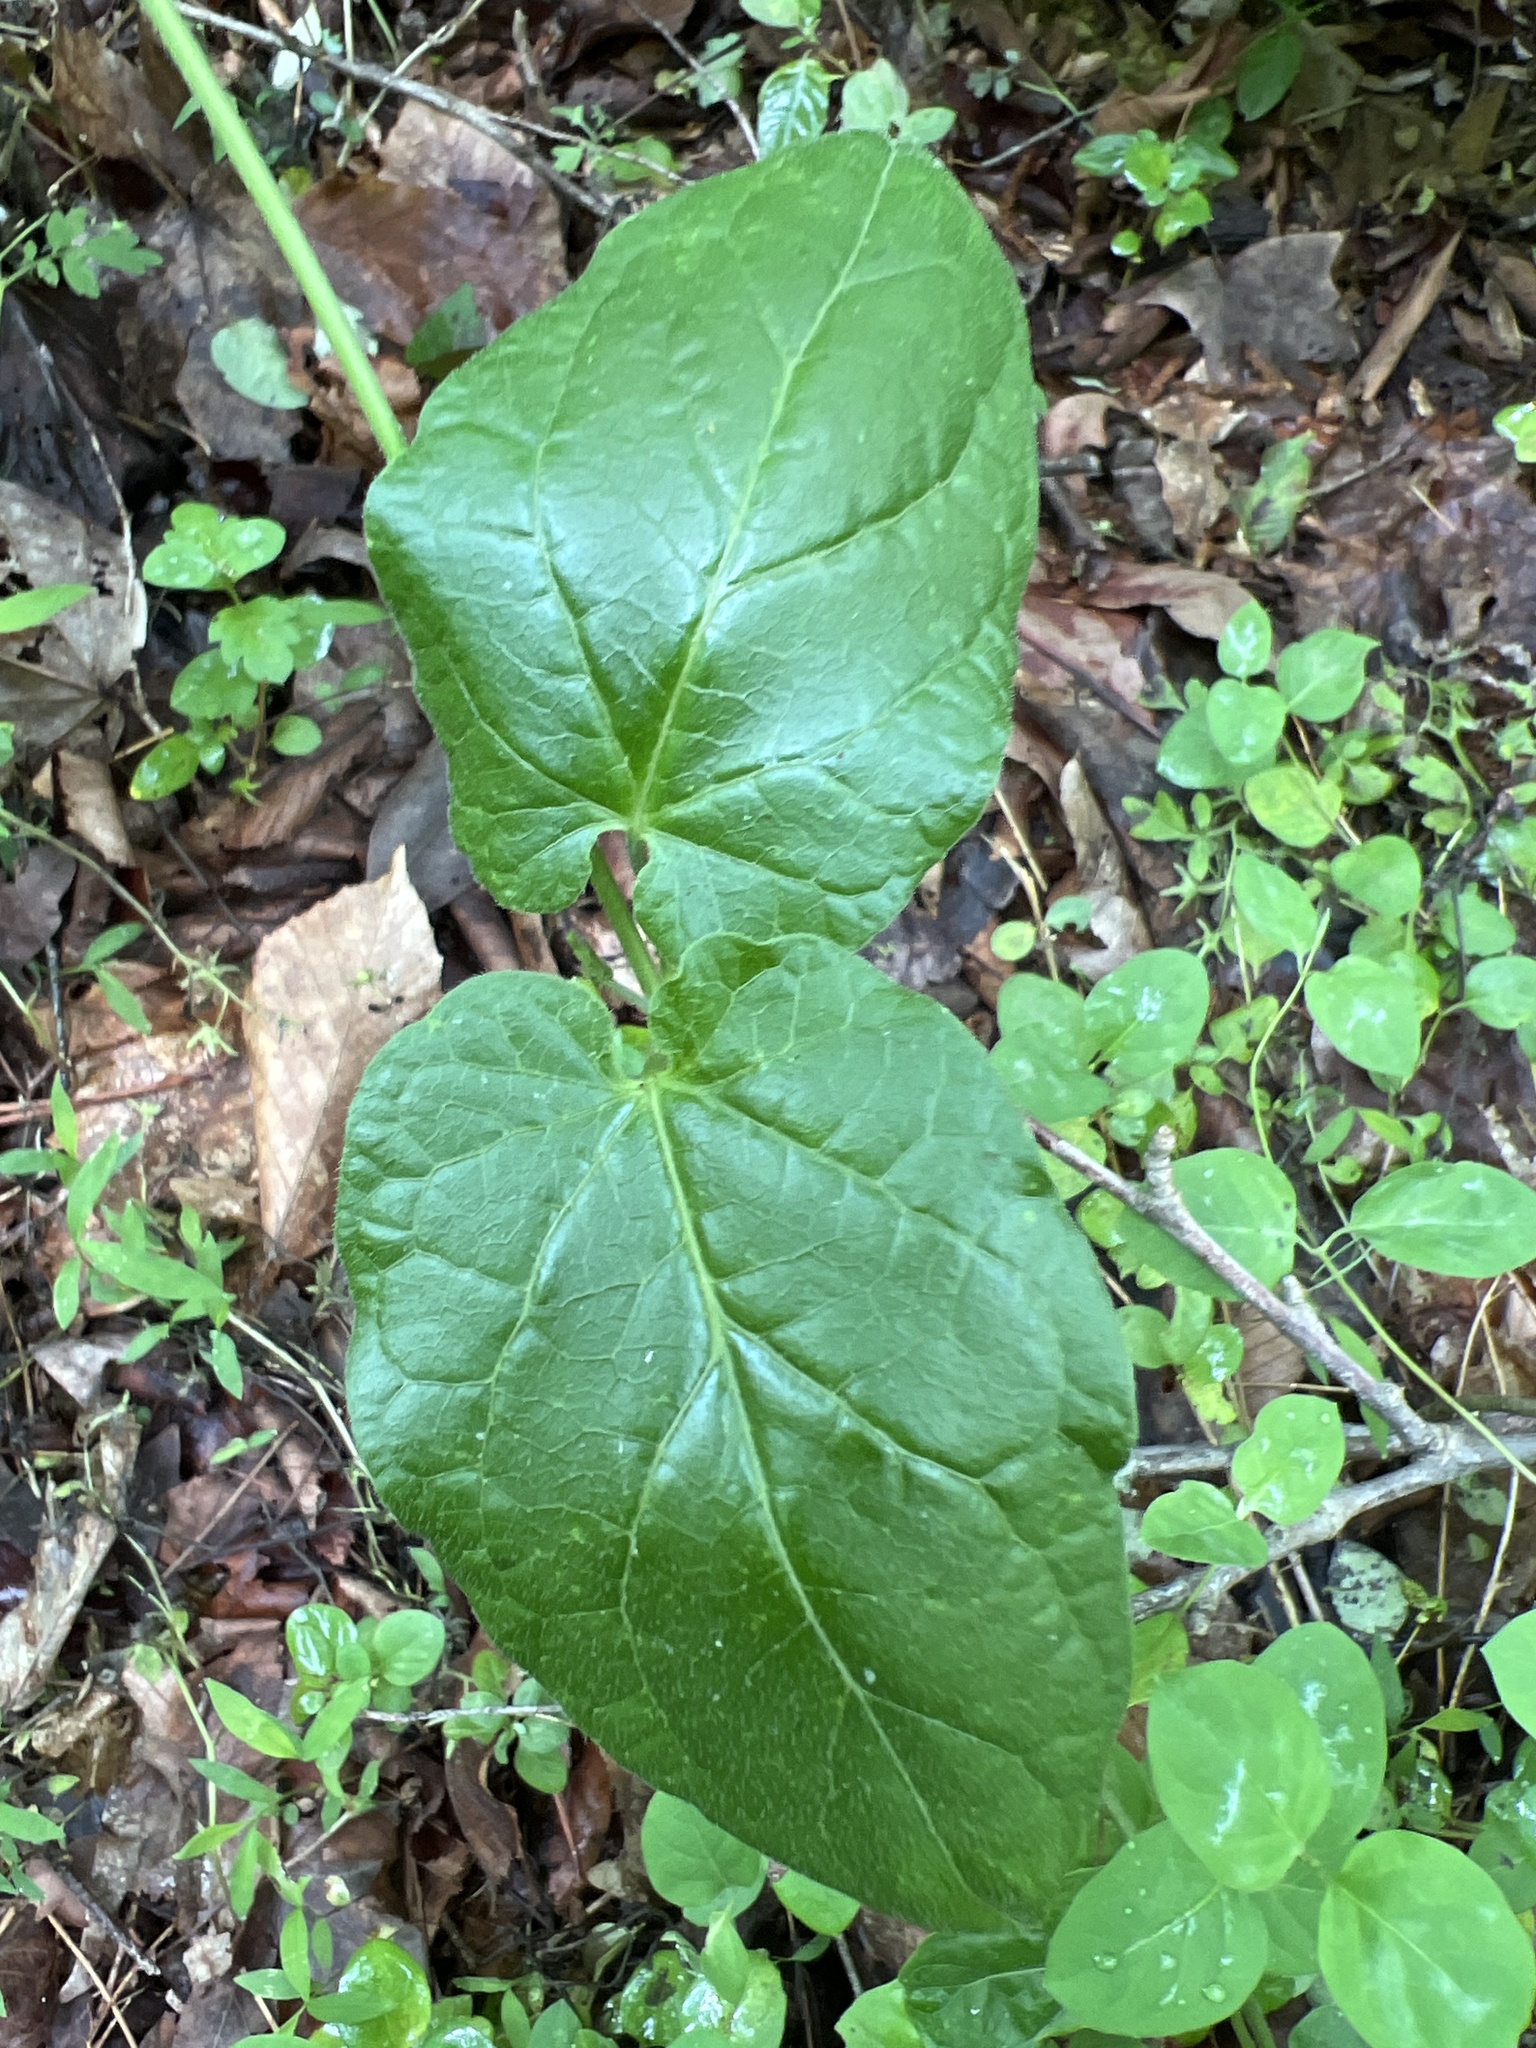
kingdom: Plantae
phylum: Tracheophyta
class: Magnoliopsida
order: Gentianales
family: Apocynaceae
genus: Gonolobus
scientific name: Gonolobus suberosus
